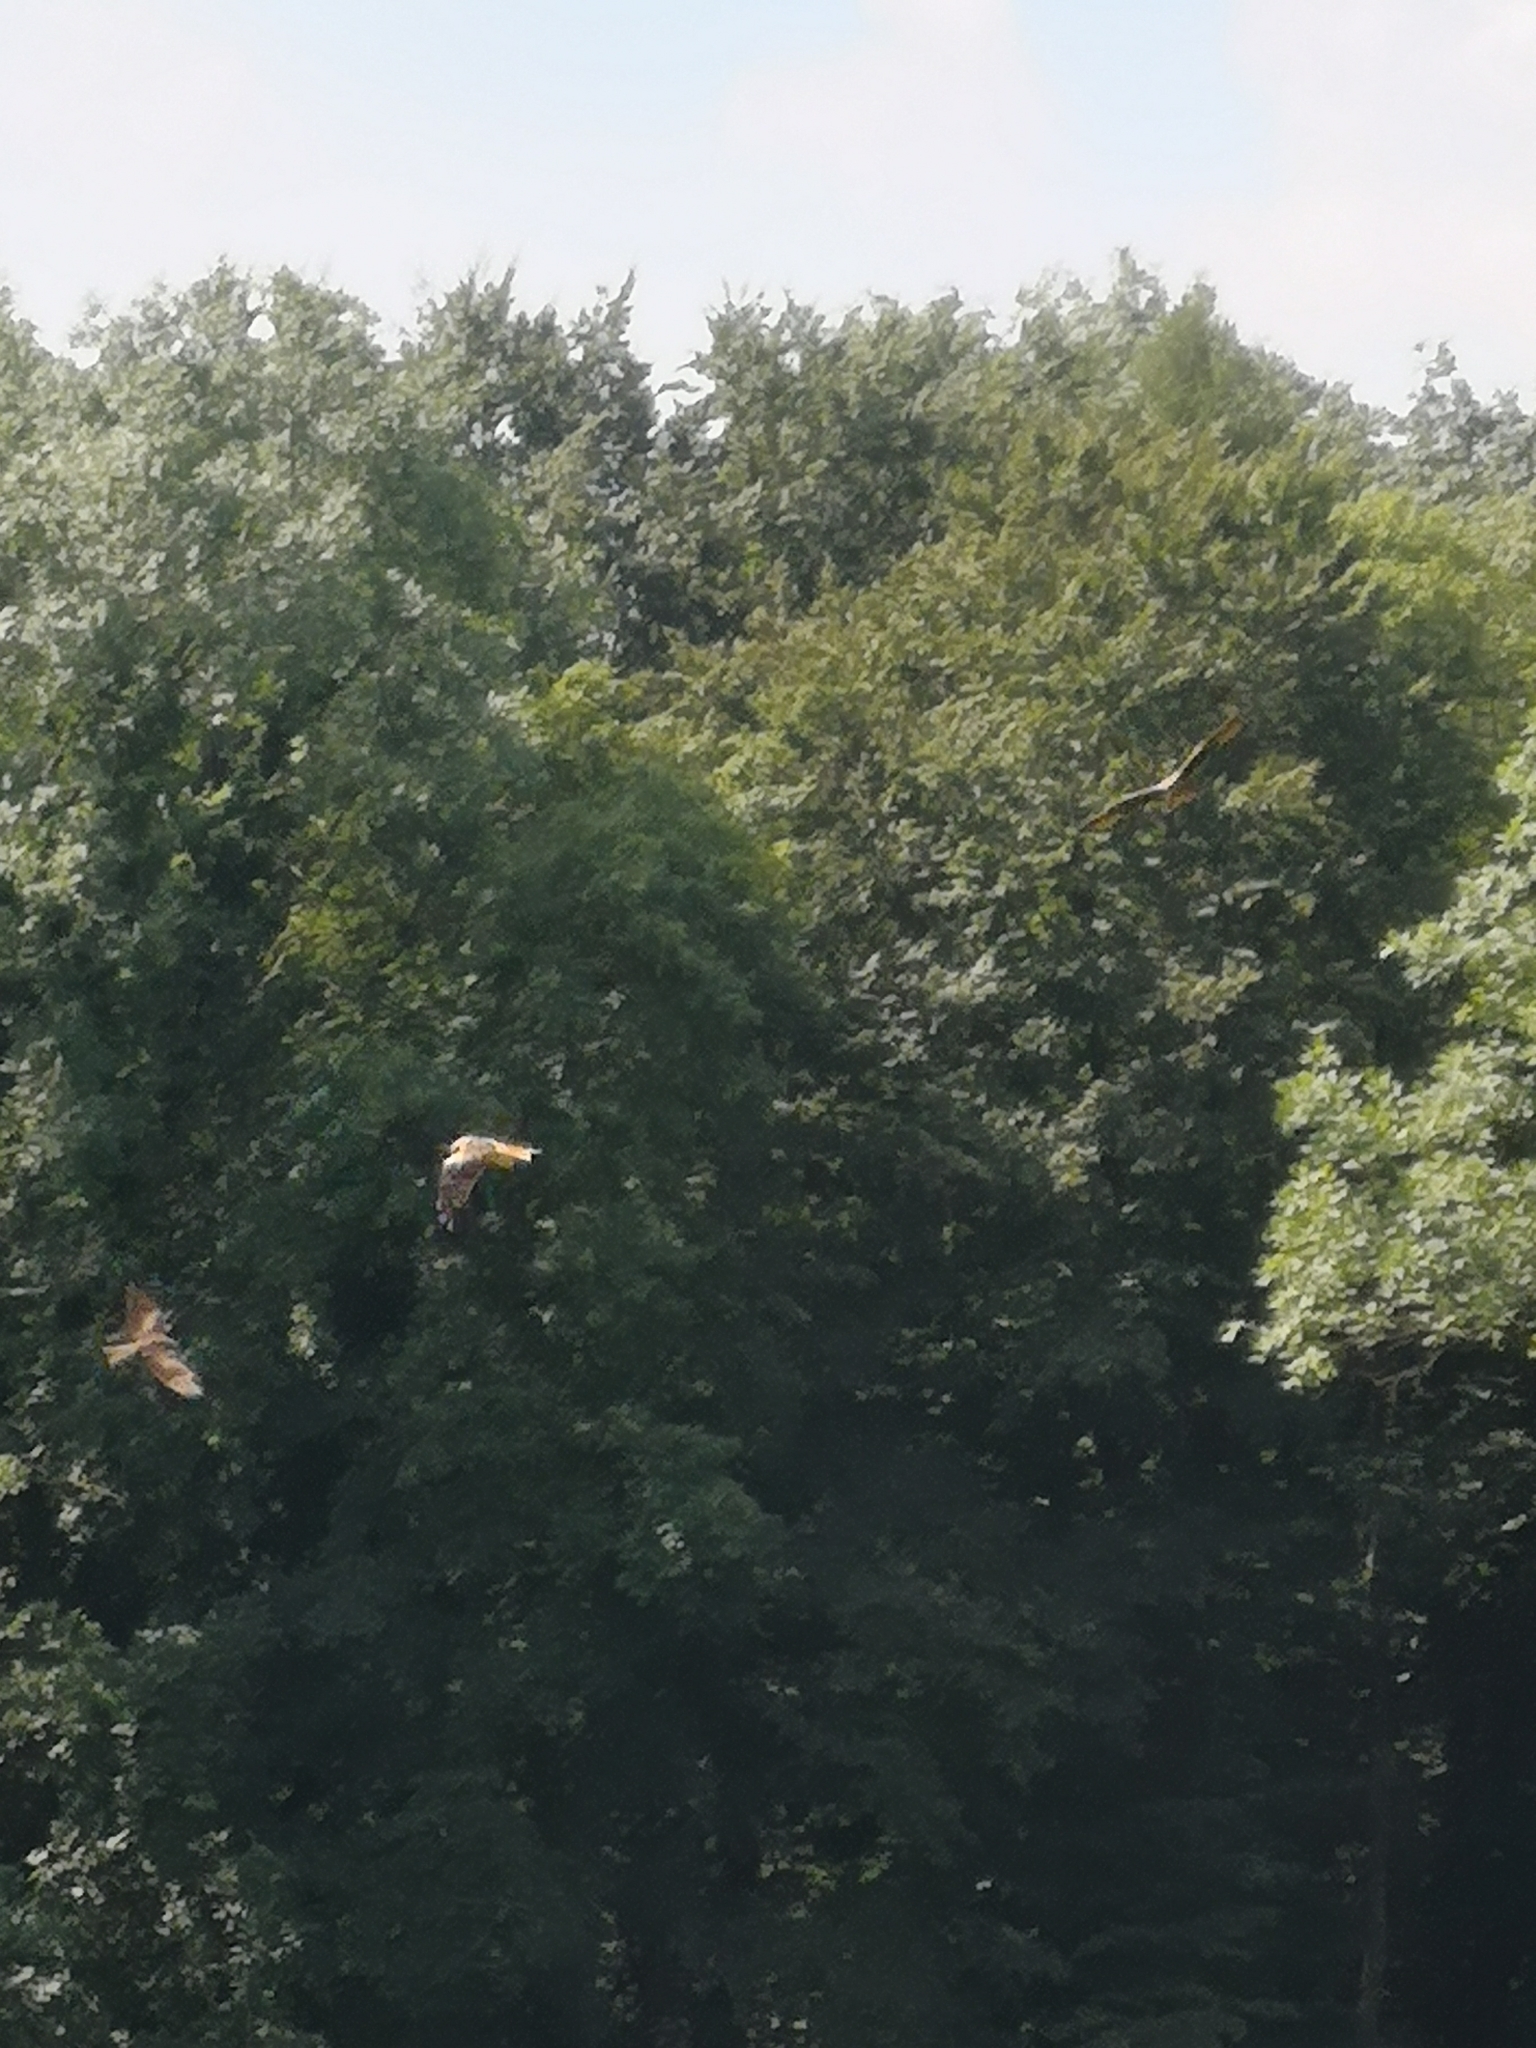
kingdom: Animalia
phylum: Chordata
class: Aves
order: Accipitriformes
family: Accipitridae
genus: Milvus
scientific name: Milvus milvus
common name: Red kite
